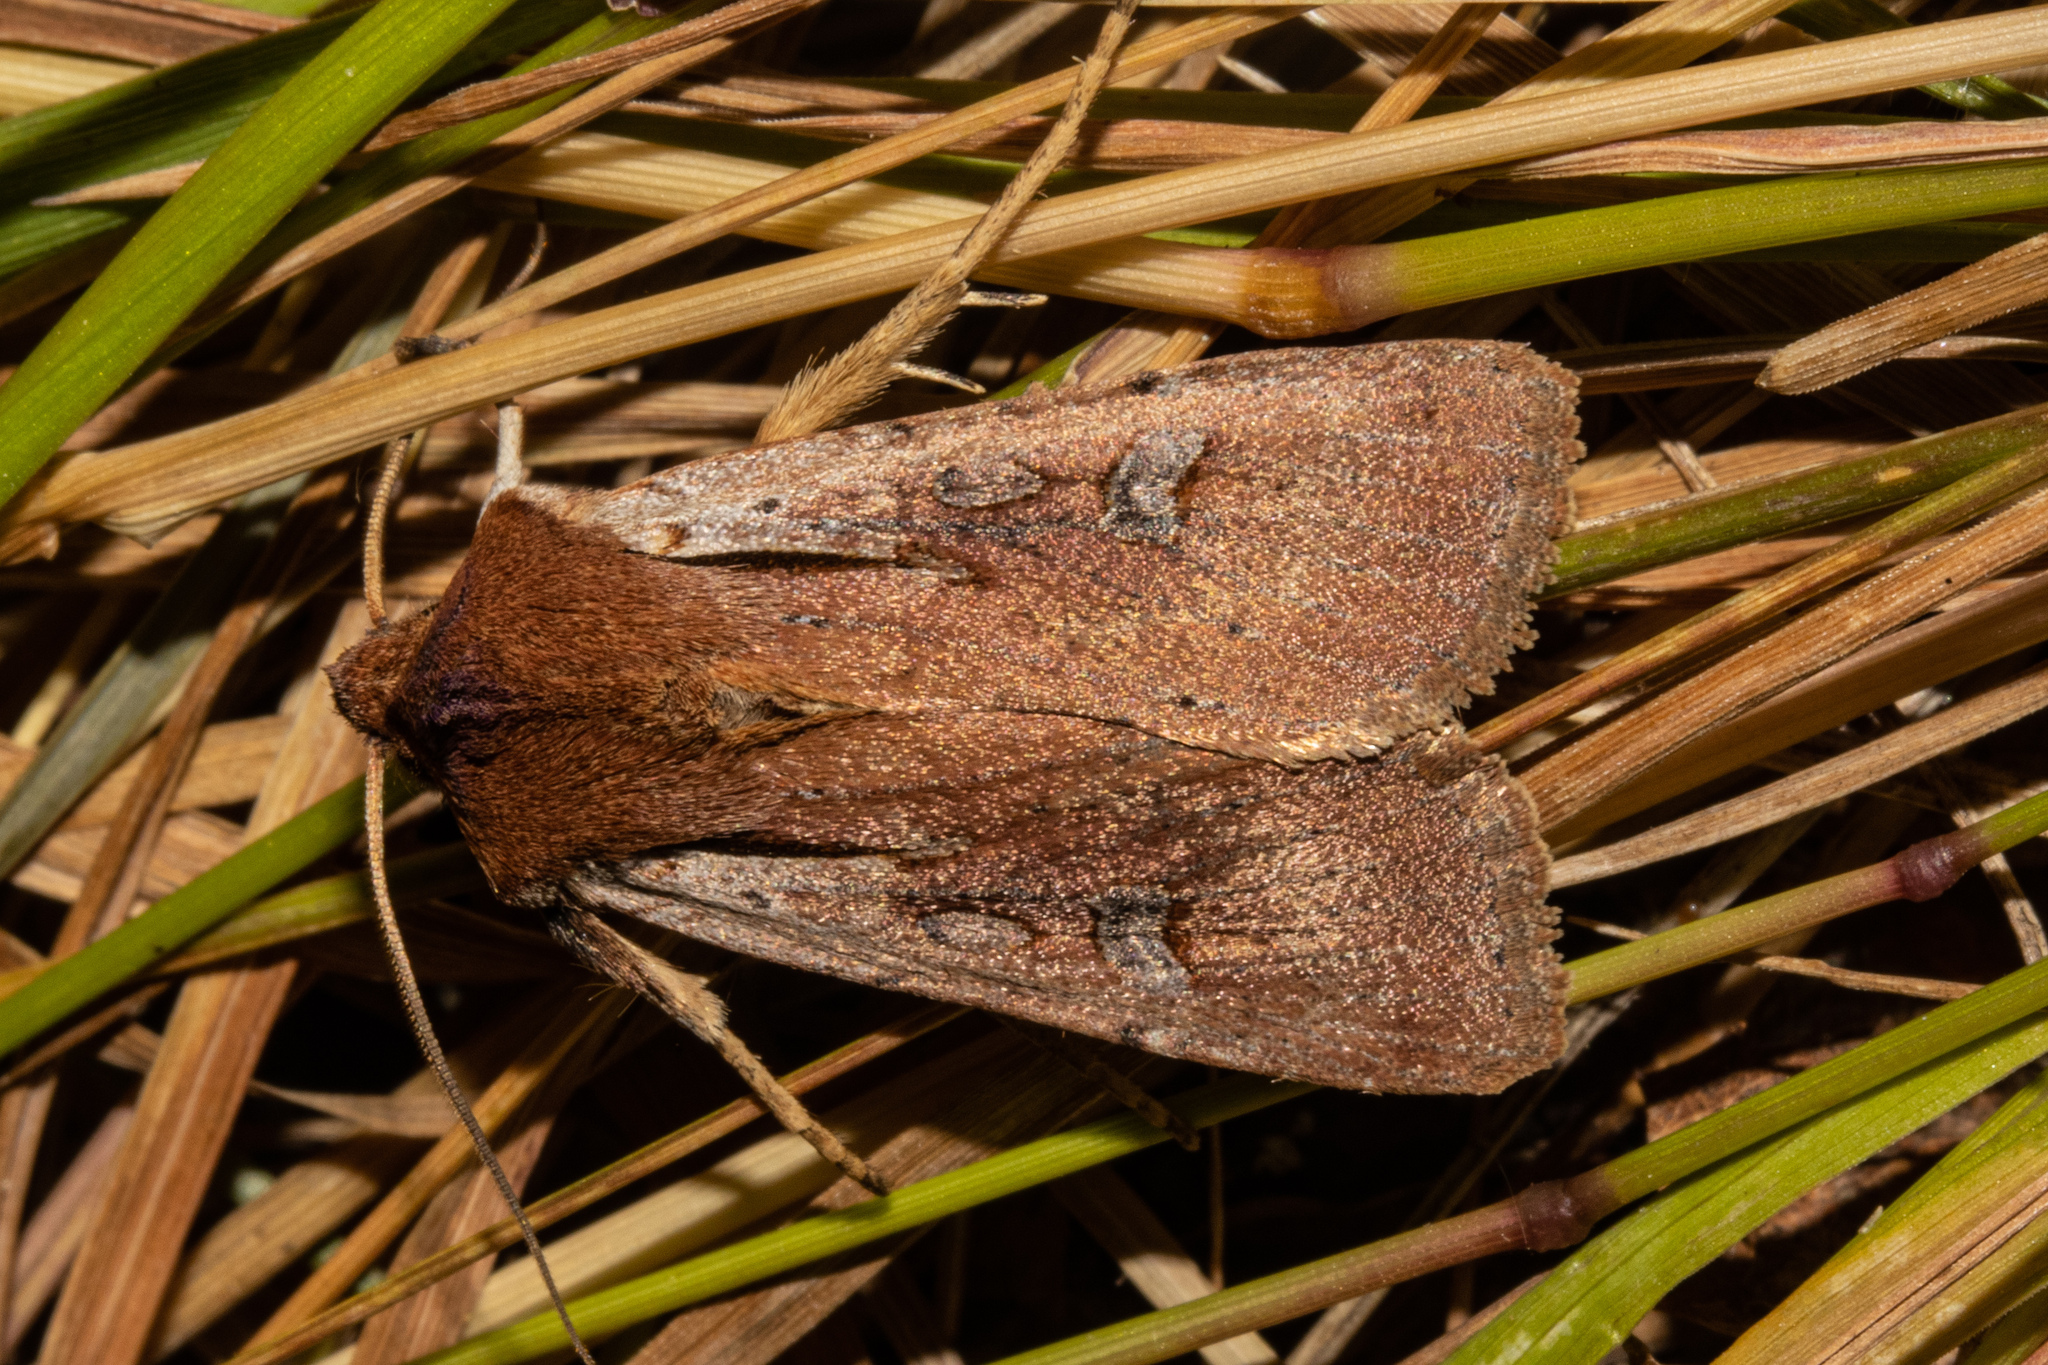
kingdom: Animalia
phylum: Arthropoda
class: Insecta
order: Lepidoptera
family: Noctuidae
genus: Ichneutica
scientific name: Ichneutica atristriga
